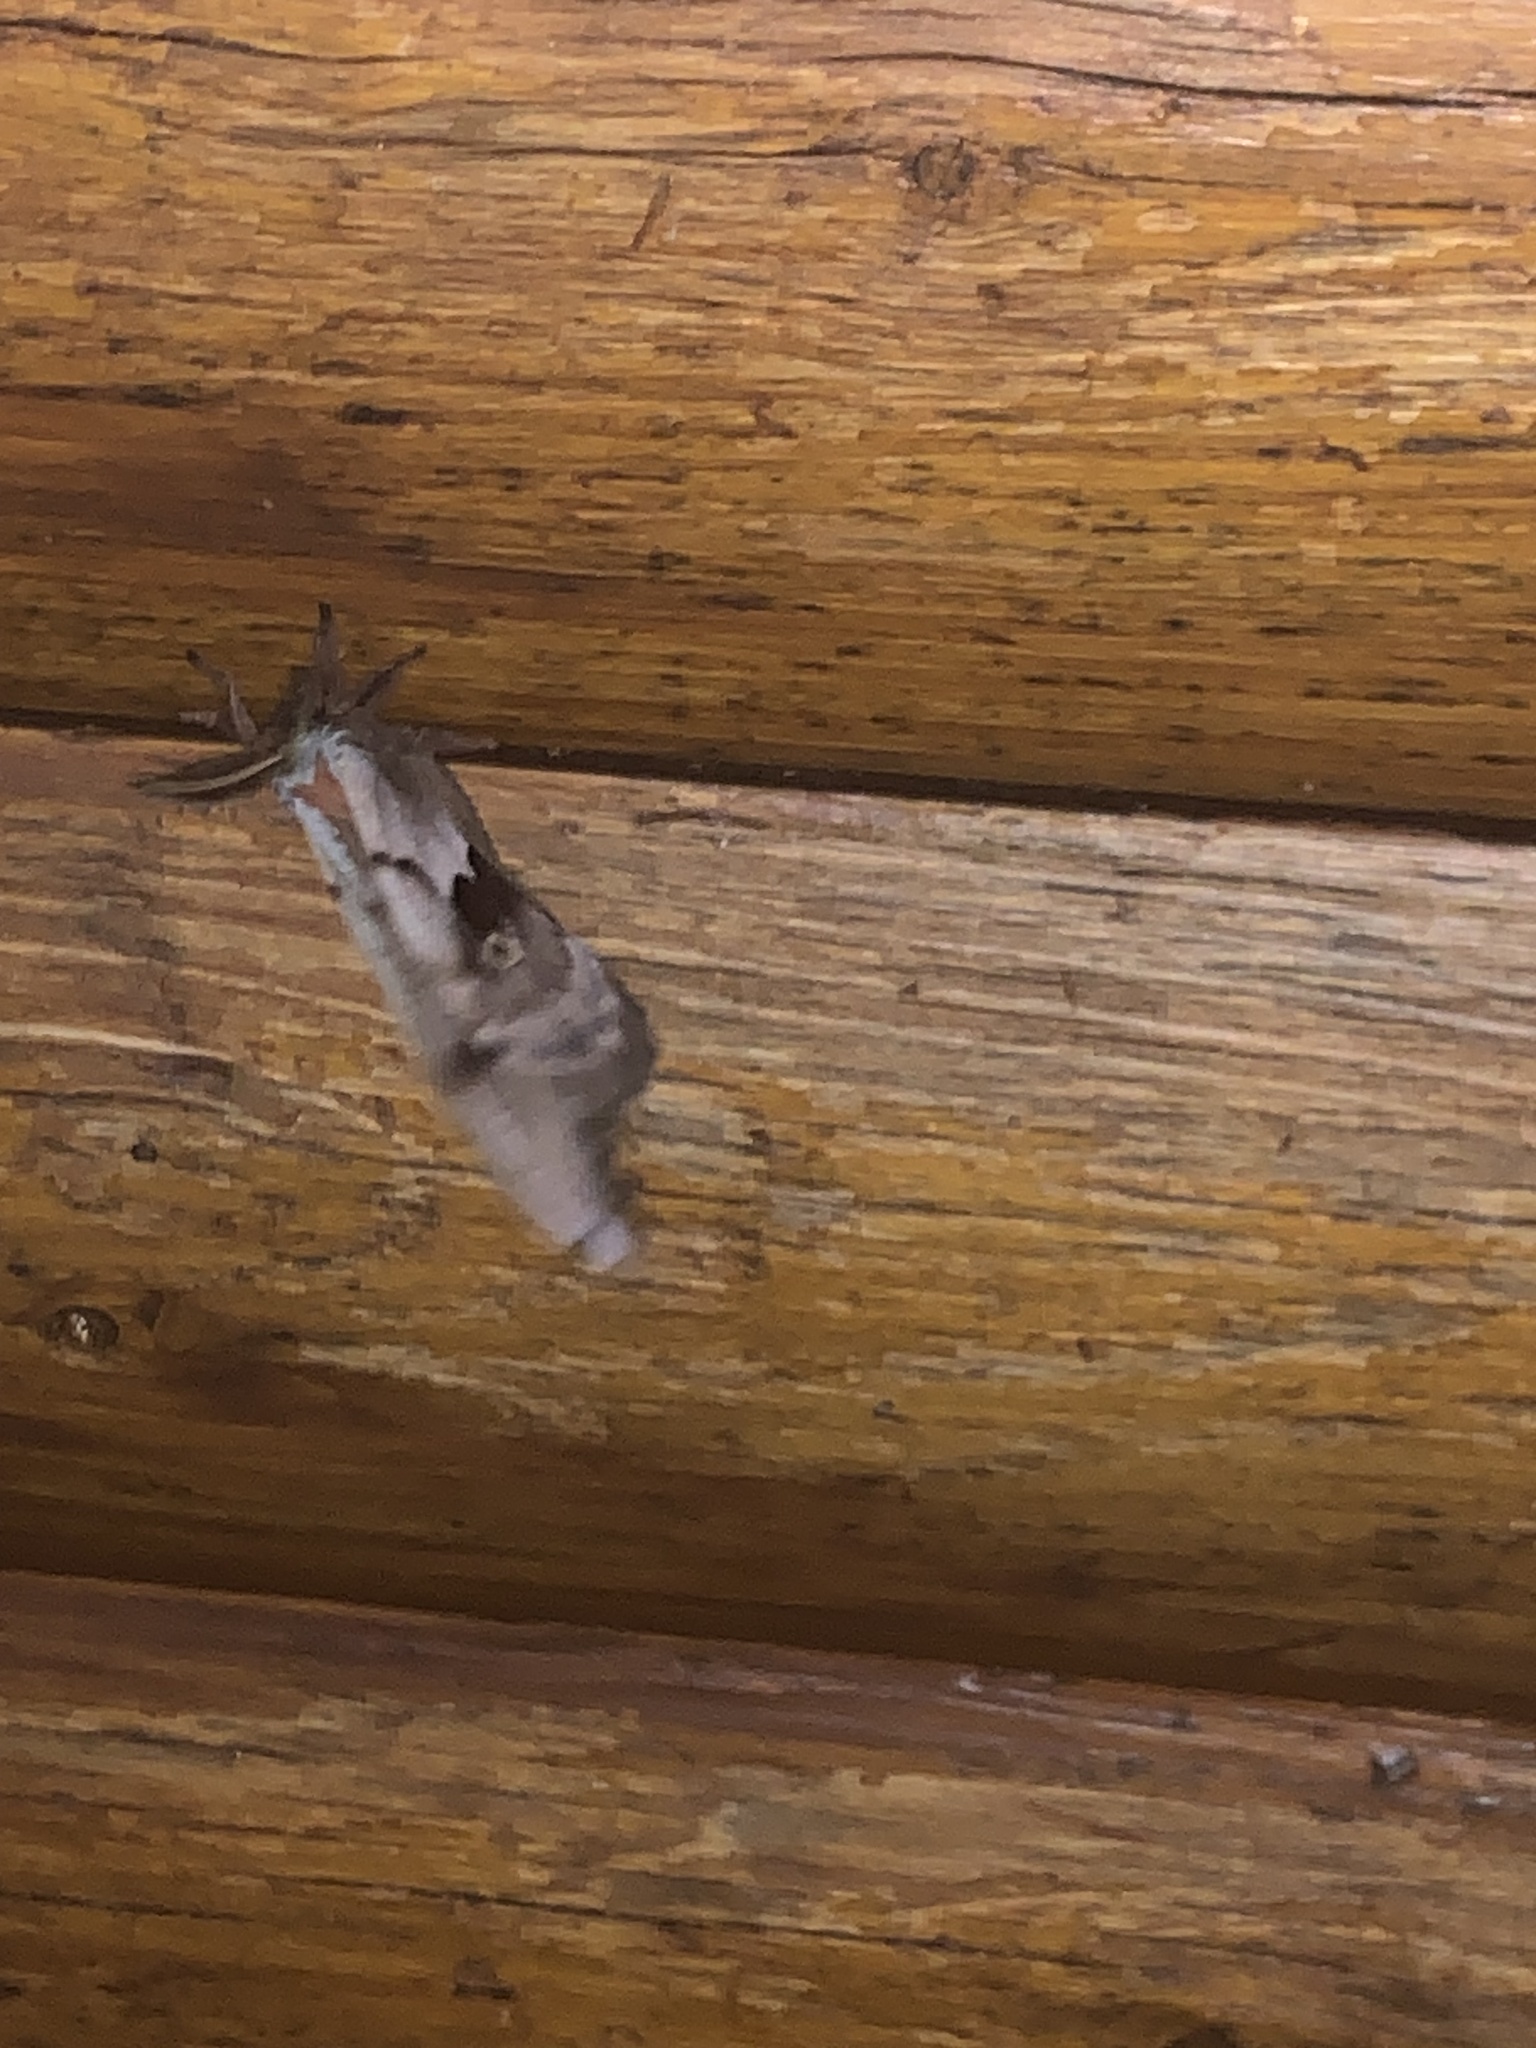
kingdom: Animalia
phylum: Arthropoda
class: Insecta
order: Lepidoptera
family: Saturniidae
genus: Antheraea
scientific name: Antheraea polyphemus
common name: Polyphemus moth
